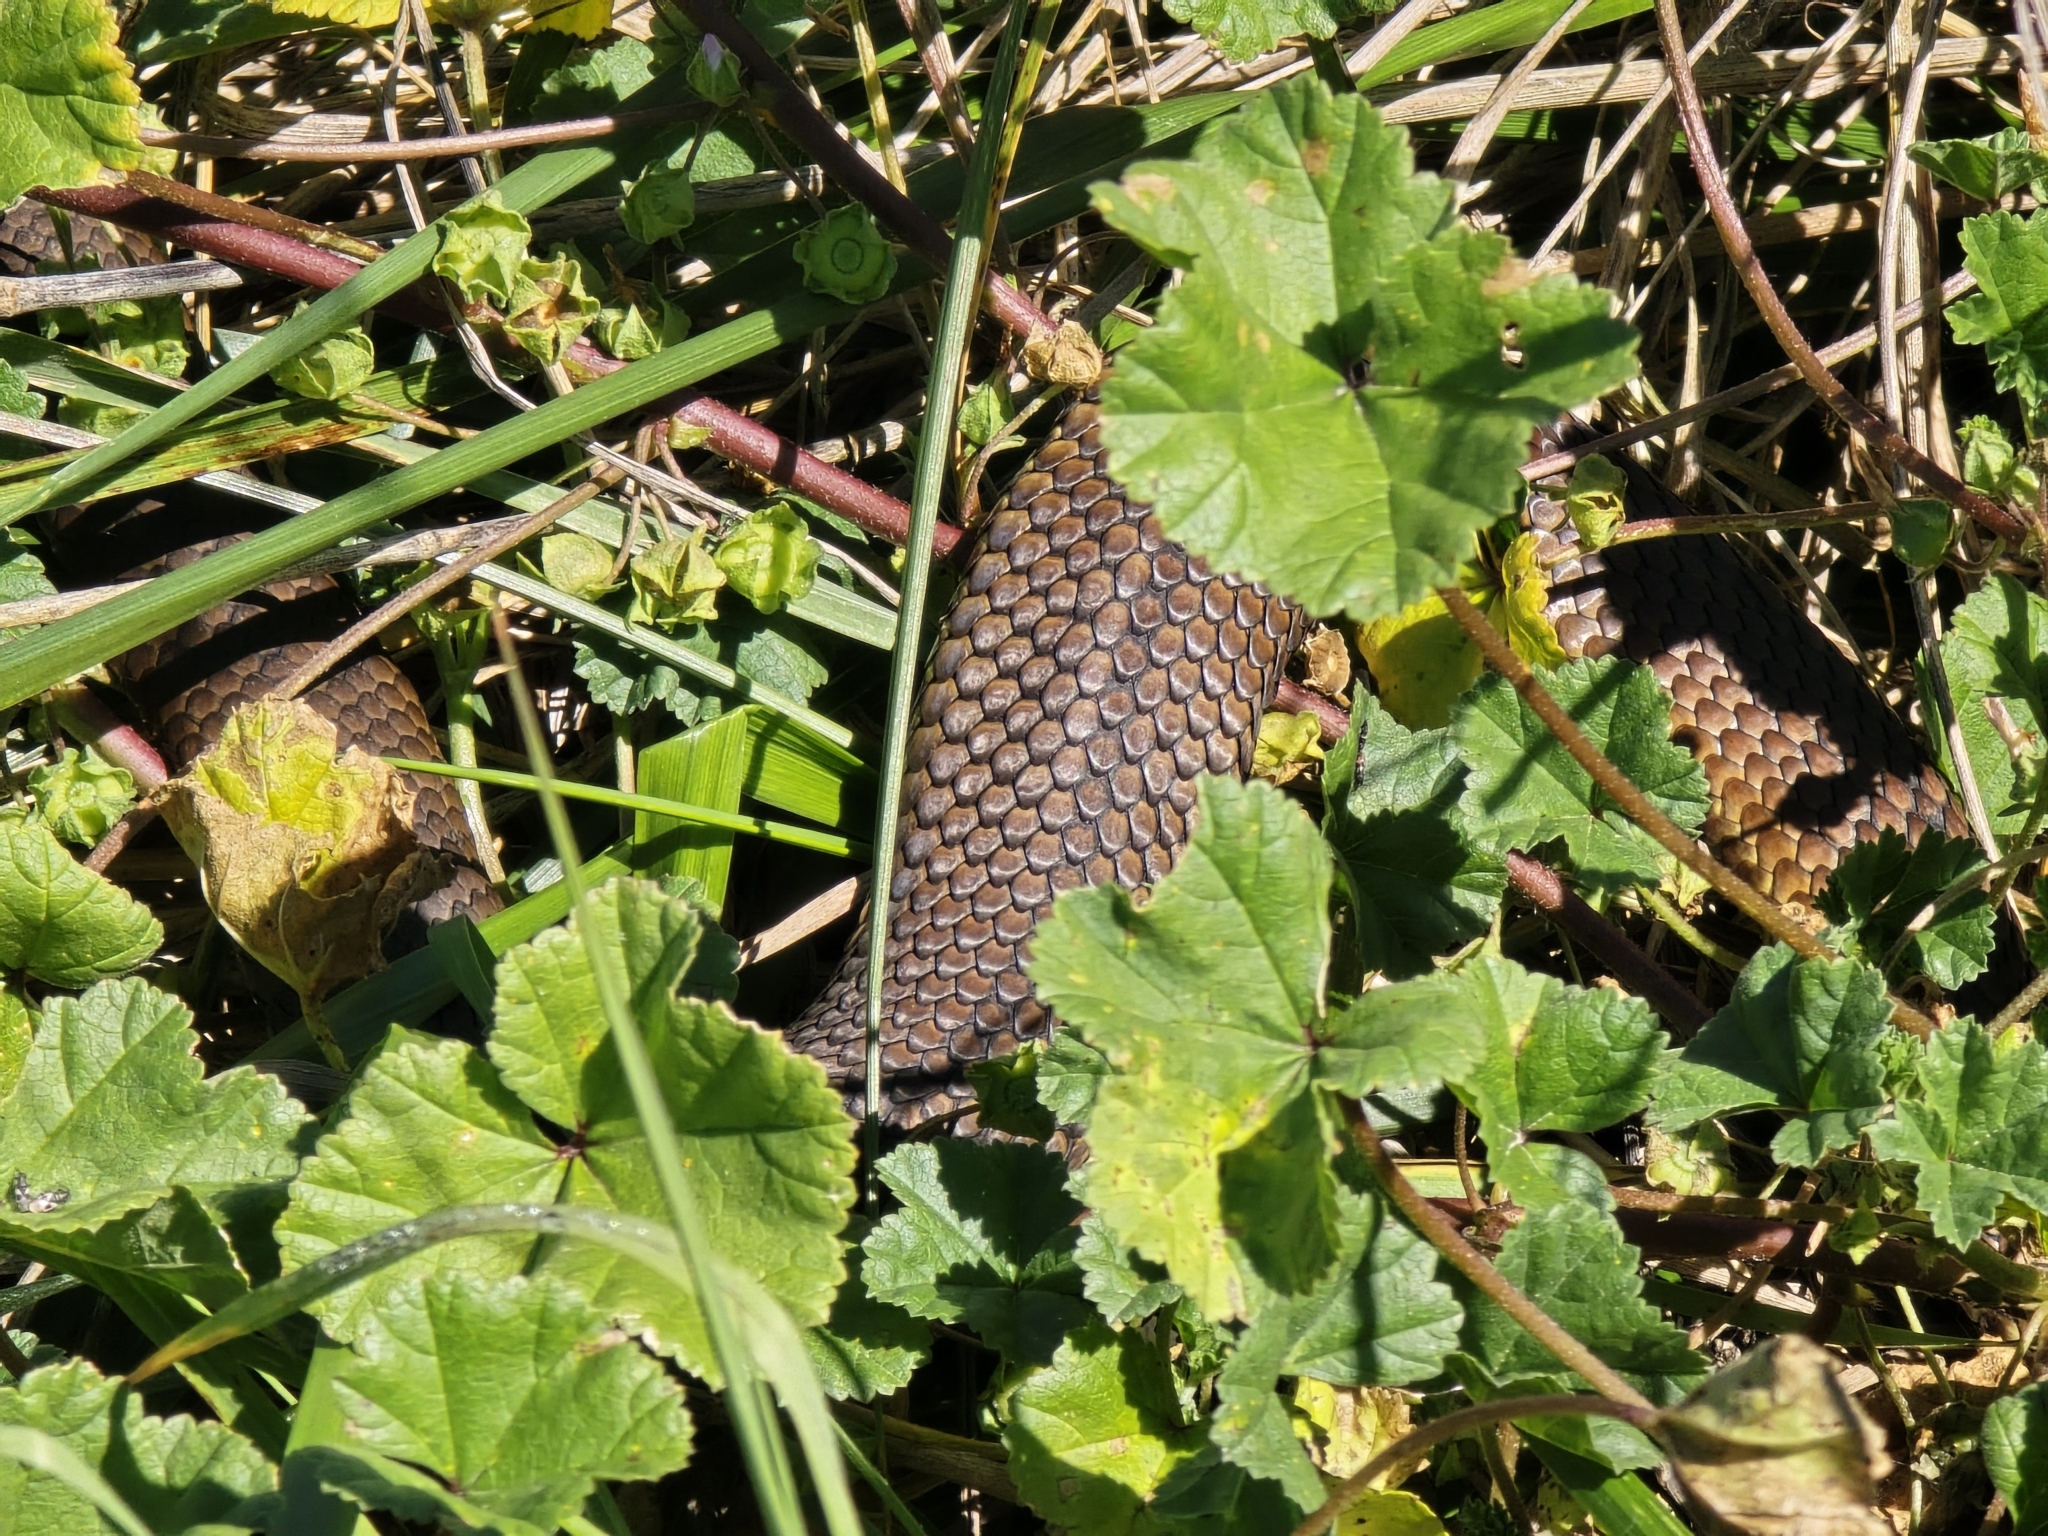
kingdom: Animalia
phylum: Chordata
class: Squamata
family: Elapidae
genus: Austrelaps
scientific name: Austrelaps ramsayi
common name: Highlands copperhead
